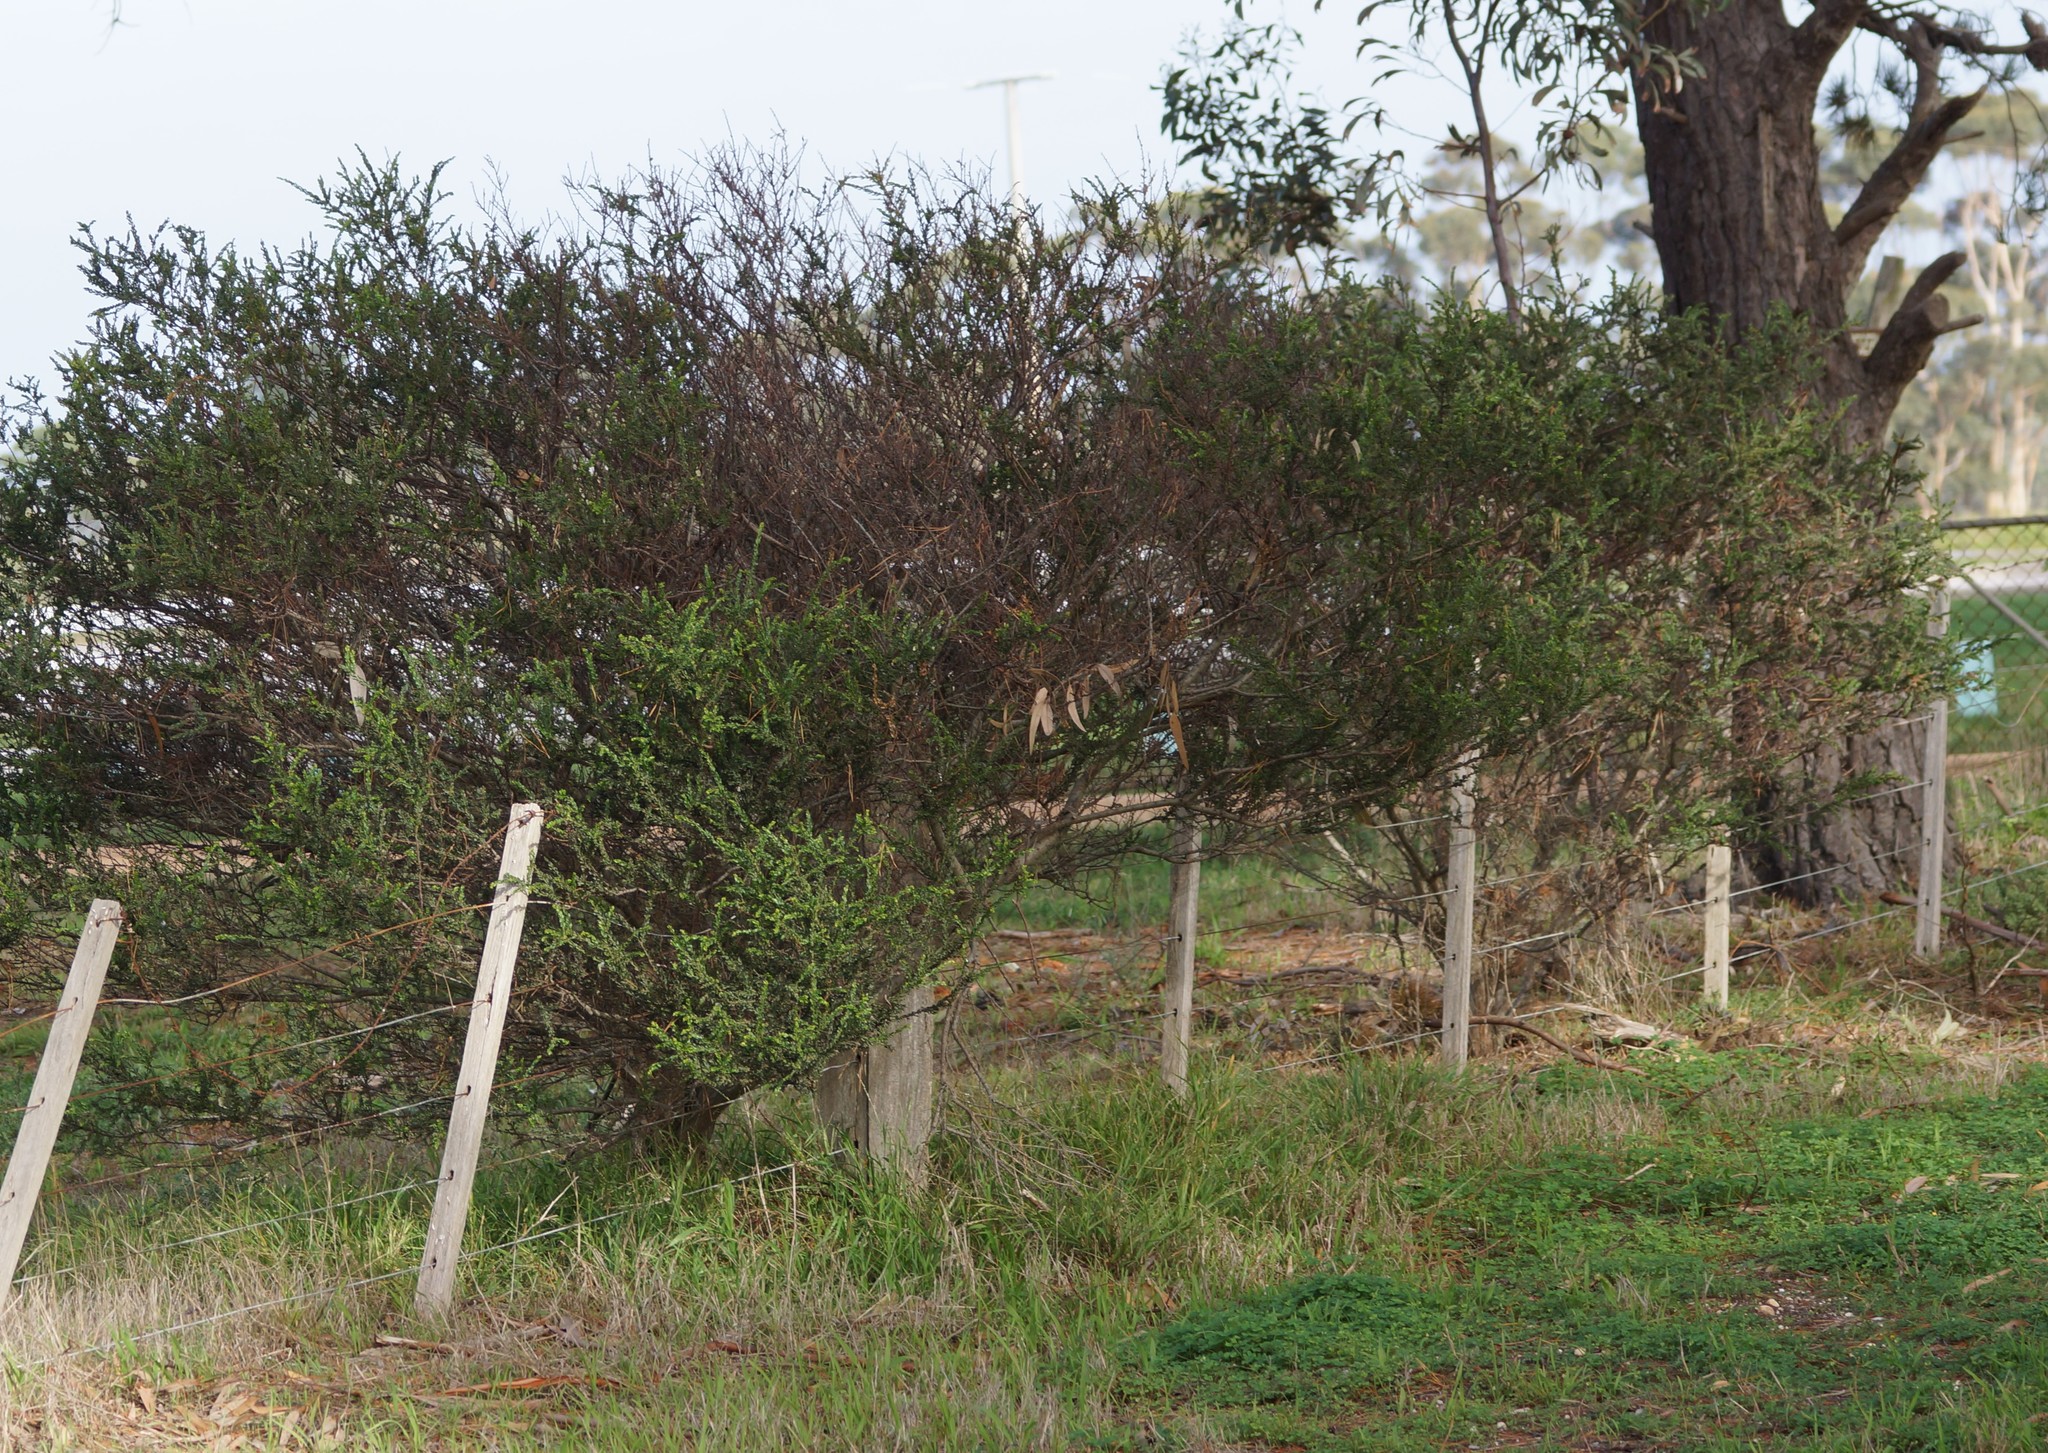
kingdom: Plantae
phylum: Tracheophyta
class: Magnoliopsida
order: Fabales
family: Fabaceae
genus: Acacia
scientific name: Acacia paradoxa
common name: Paradox acacia
